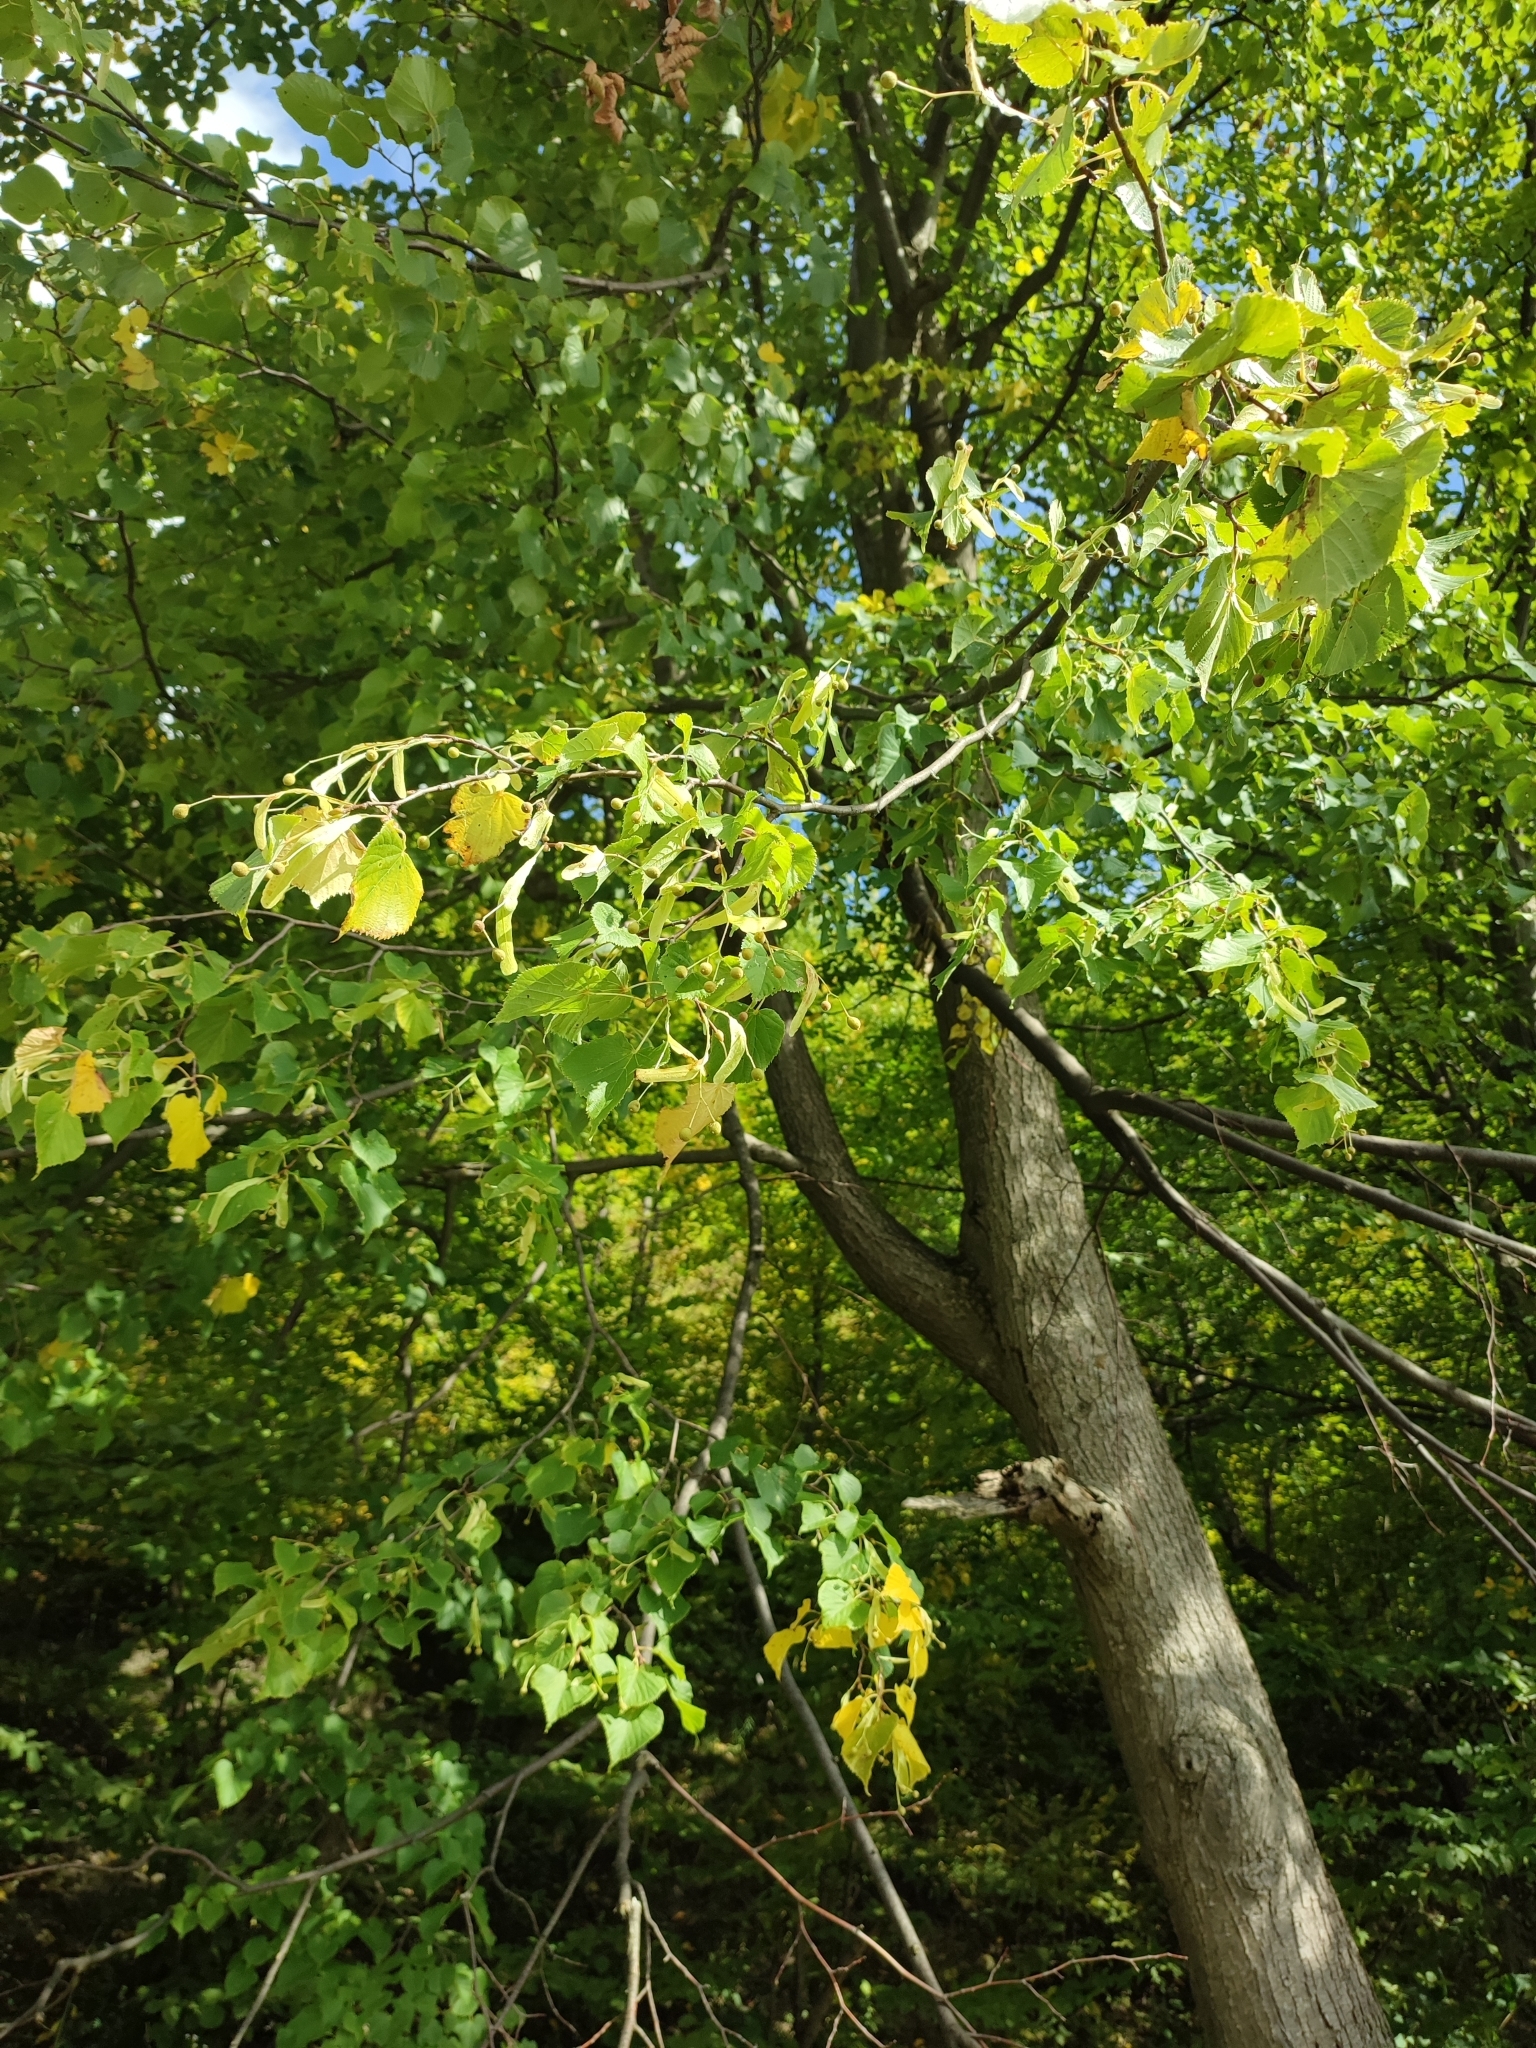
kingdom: Plantae
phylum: Tracheophyta
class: Magnoliopsida
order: Malvales
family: Malvaceae
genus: Tilia
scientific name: Tilia cordata
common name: Small-leaved lime
